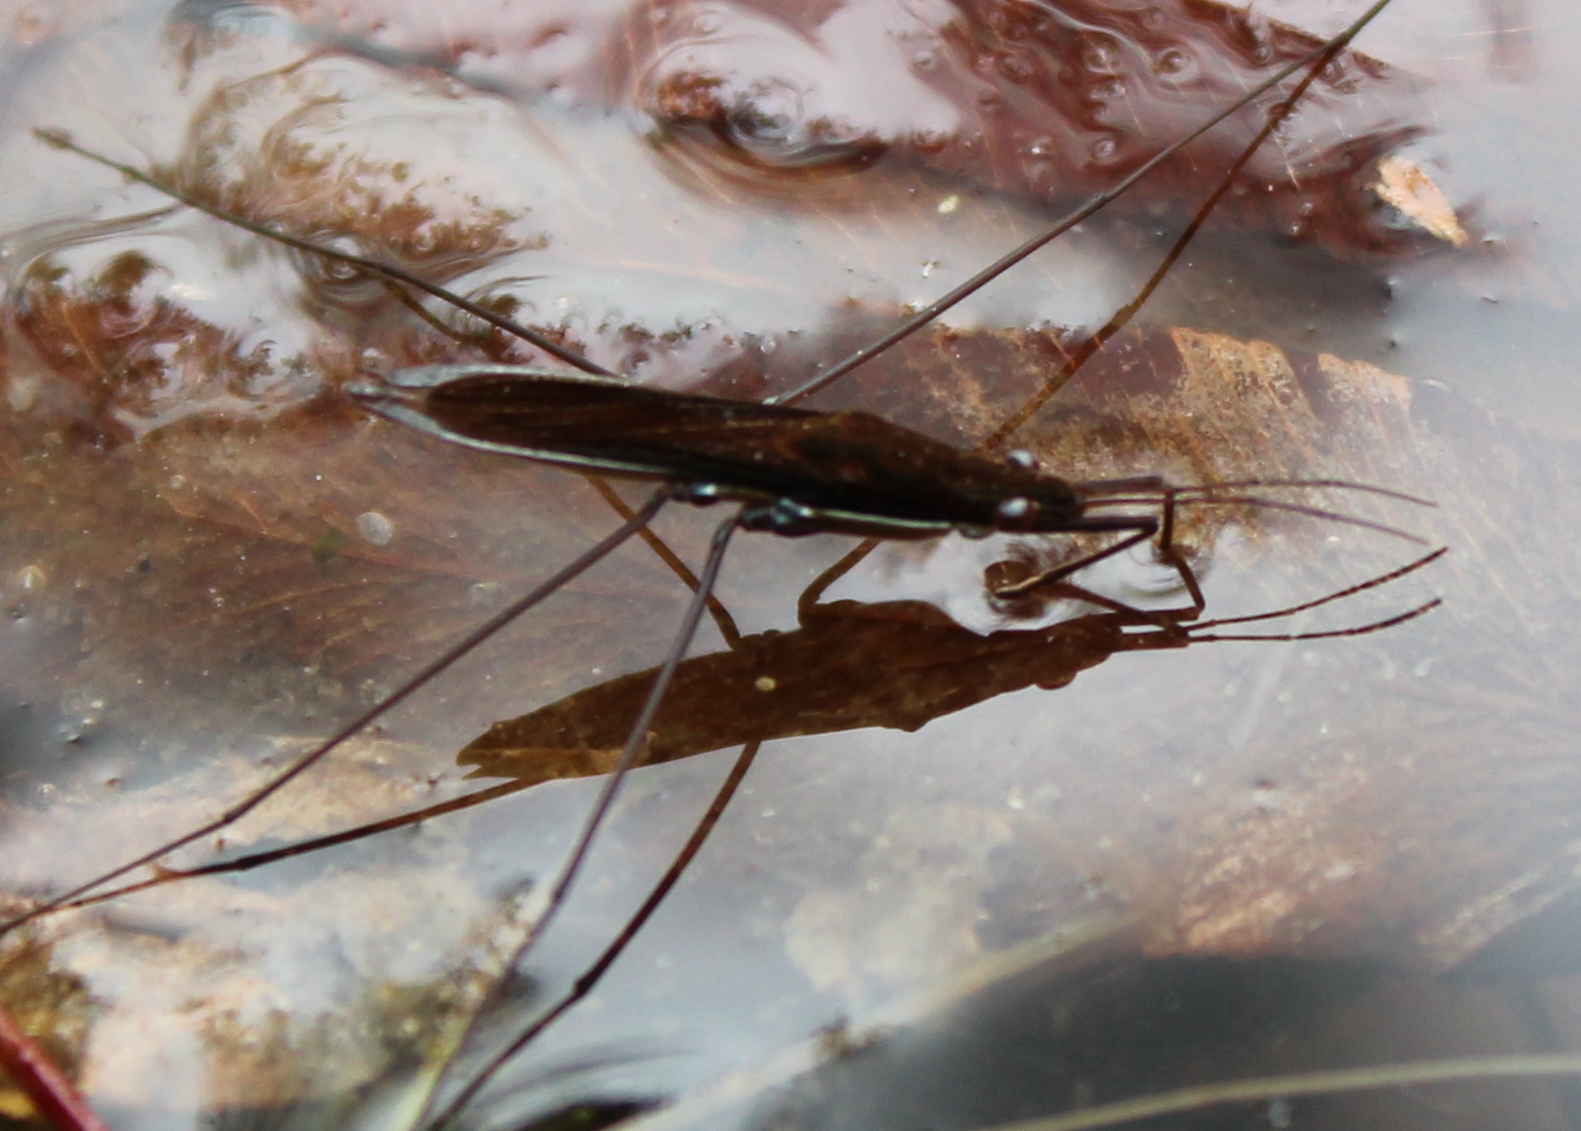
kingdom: Animalia
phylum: Arthropoda
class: Insecta
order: Hemiptera
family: Gerridae
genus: Limnoporus
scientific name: Limnoporus dissortis
